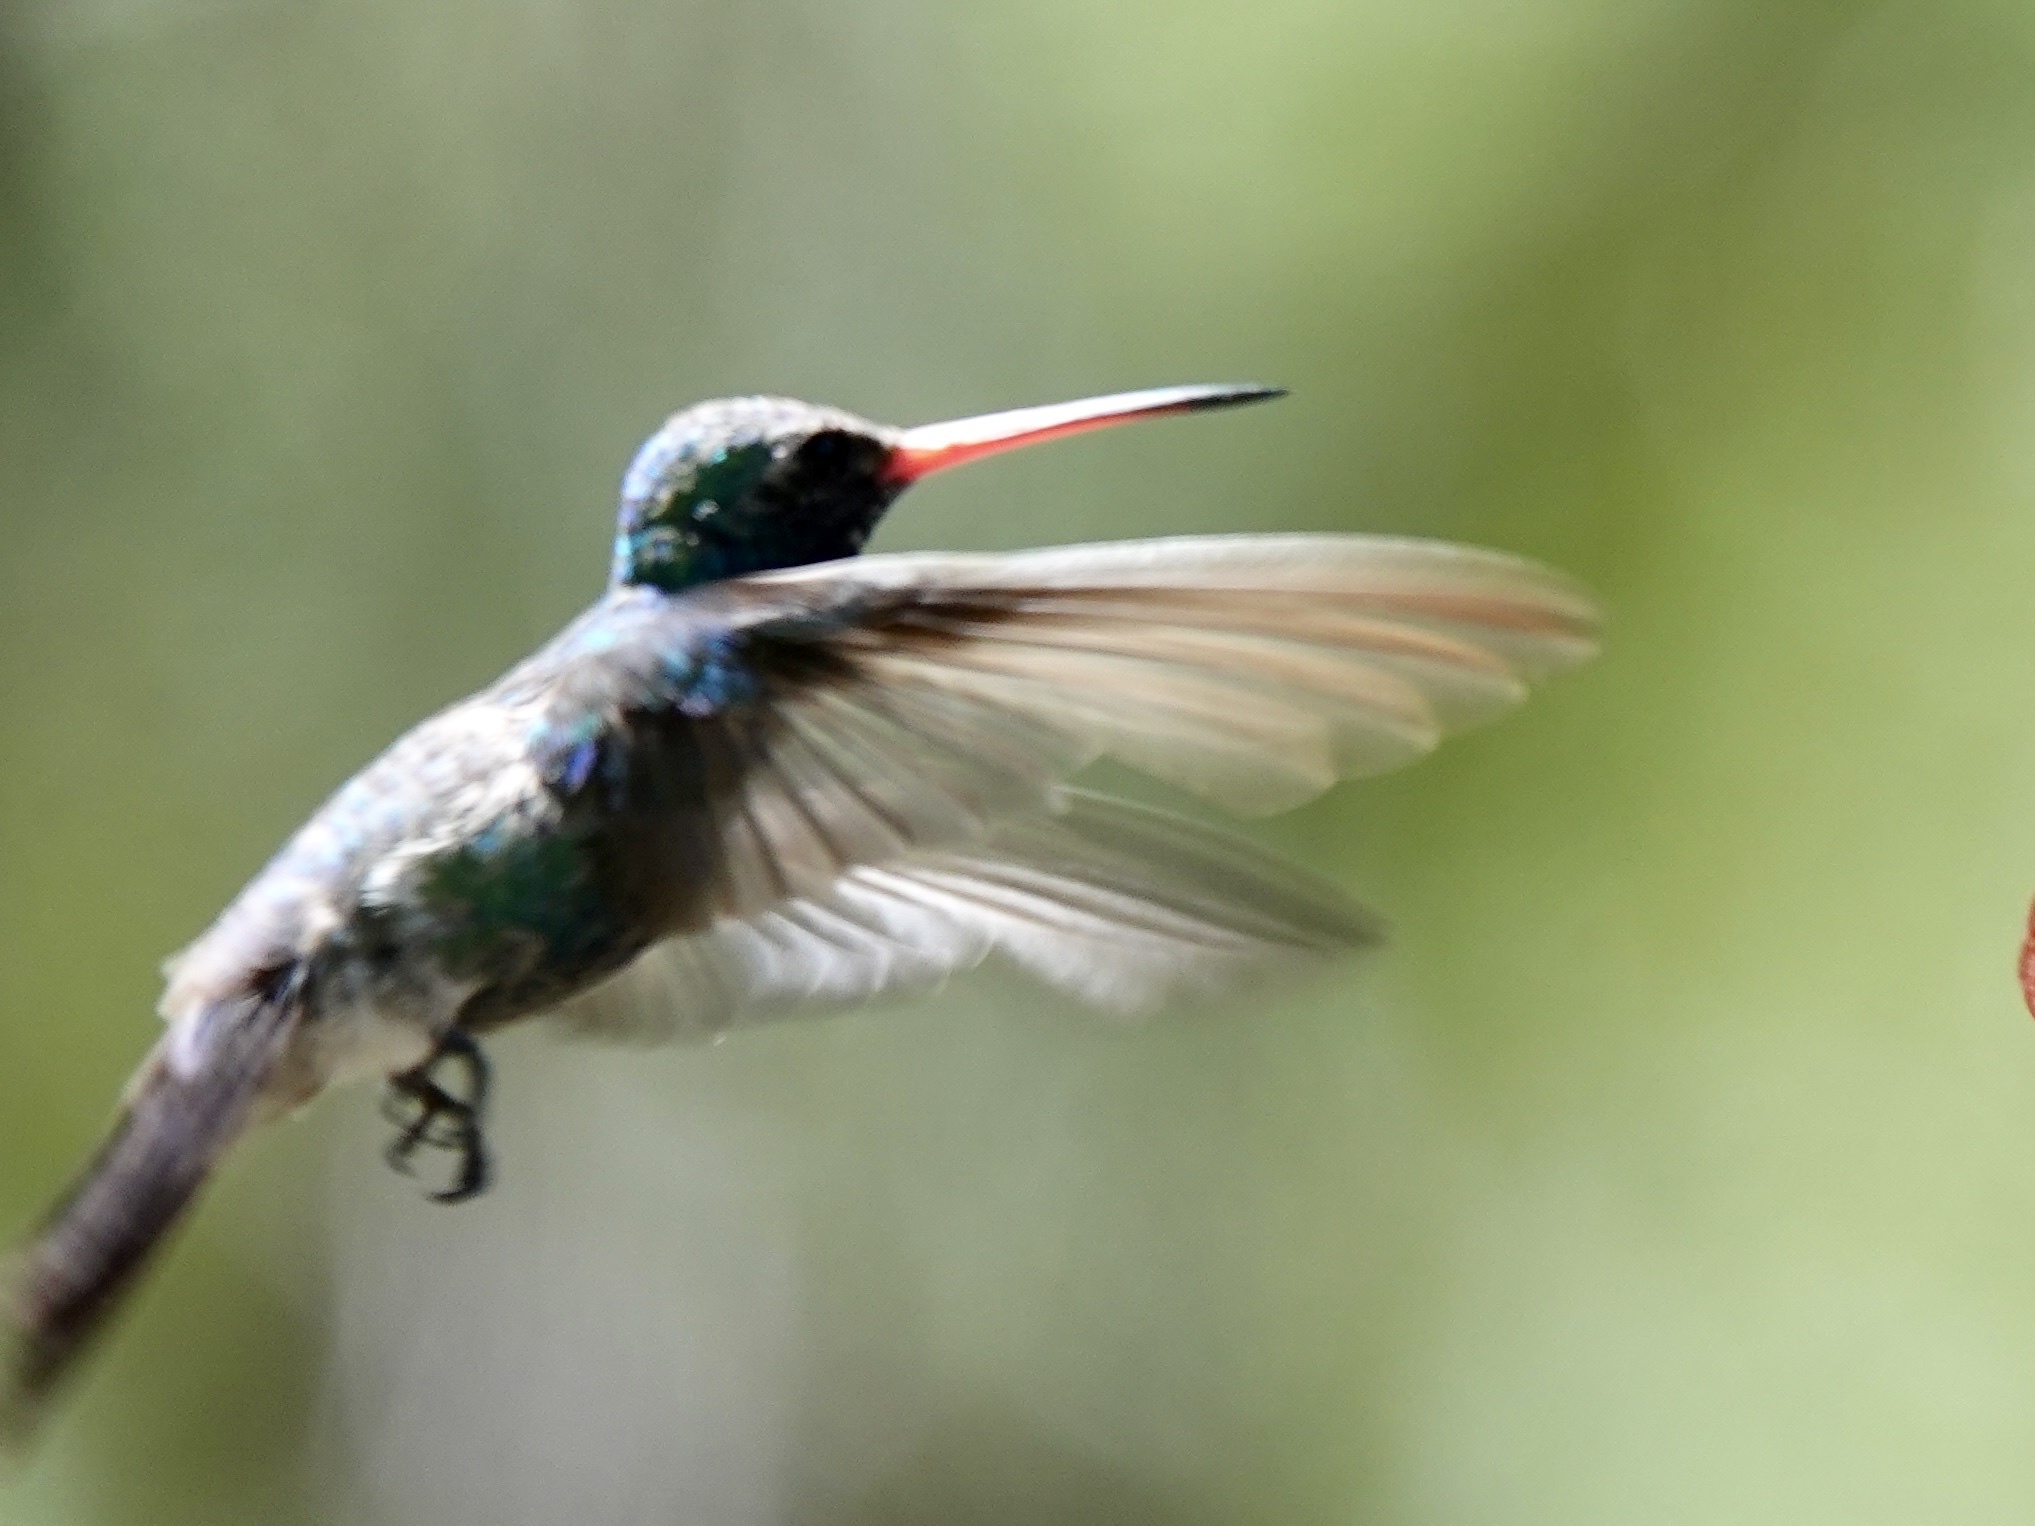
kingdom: Animalia
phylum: Chordata
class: Aves
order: Apodiformes
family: Trochilidae
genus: Cynanthus
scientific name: Cynanthus latirostris
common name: Broad-billed hummingbird
